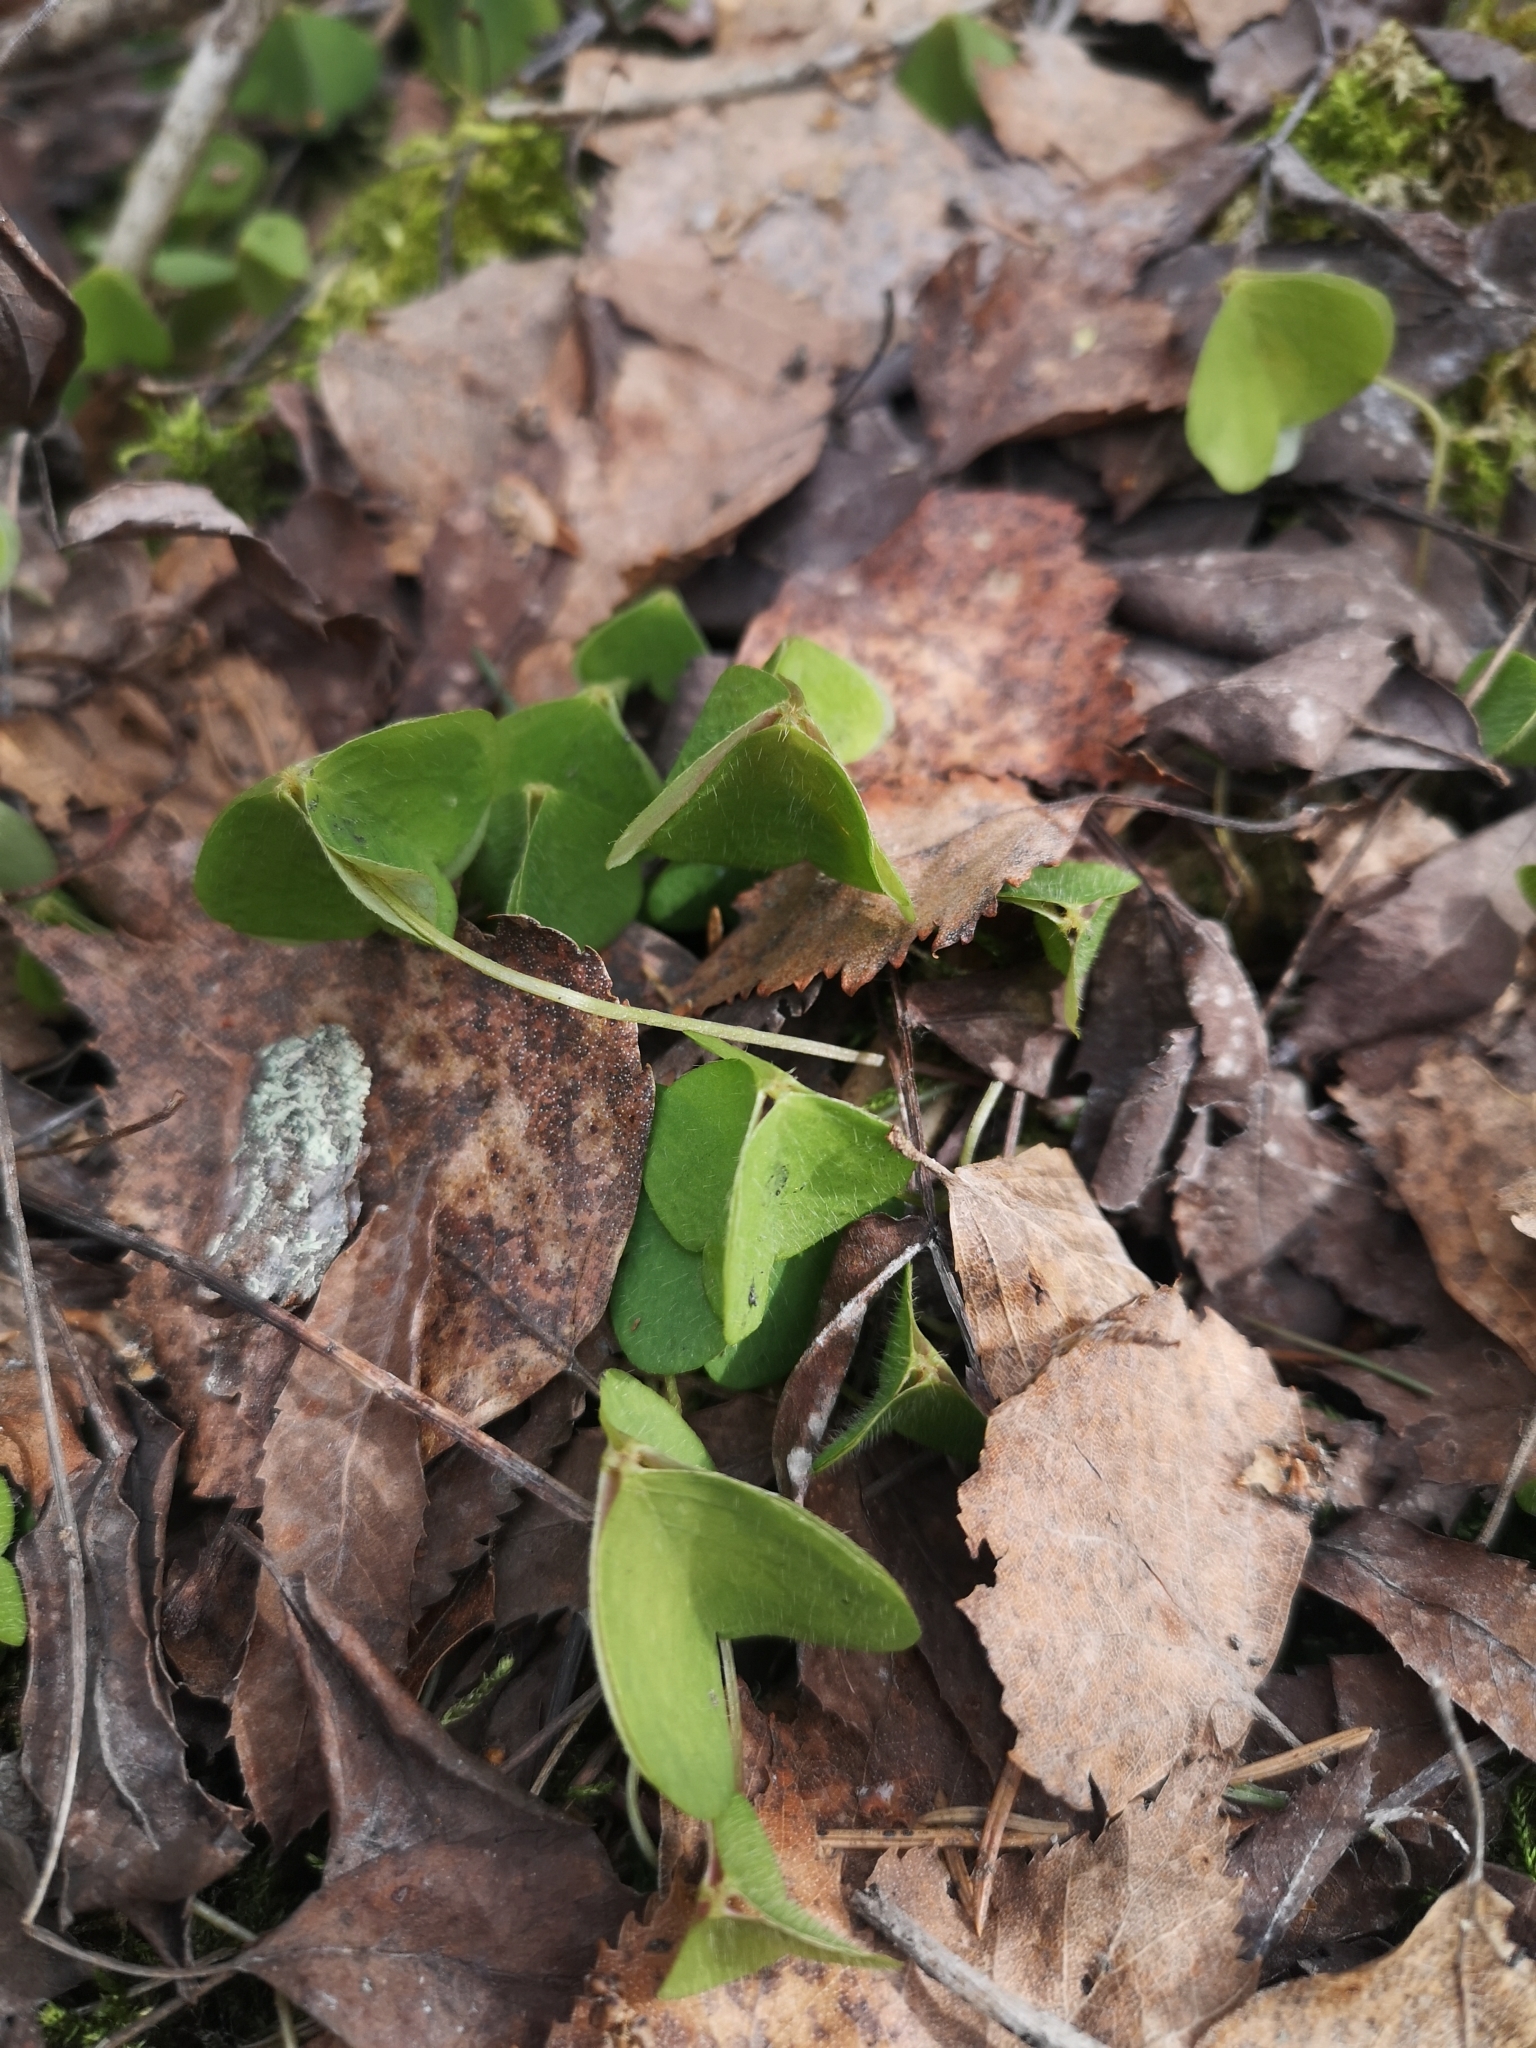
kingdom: Plantae
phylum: Tracheophyta
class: Magnoliopsida
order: Oxalidales
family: Oxalidaceae
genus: Oxalis
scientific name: Oxalis acetosella
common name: Wood-sorrel
